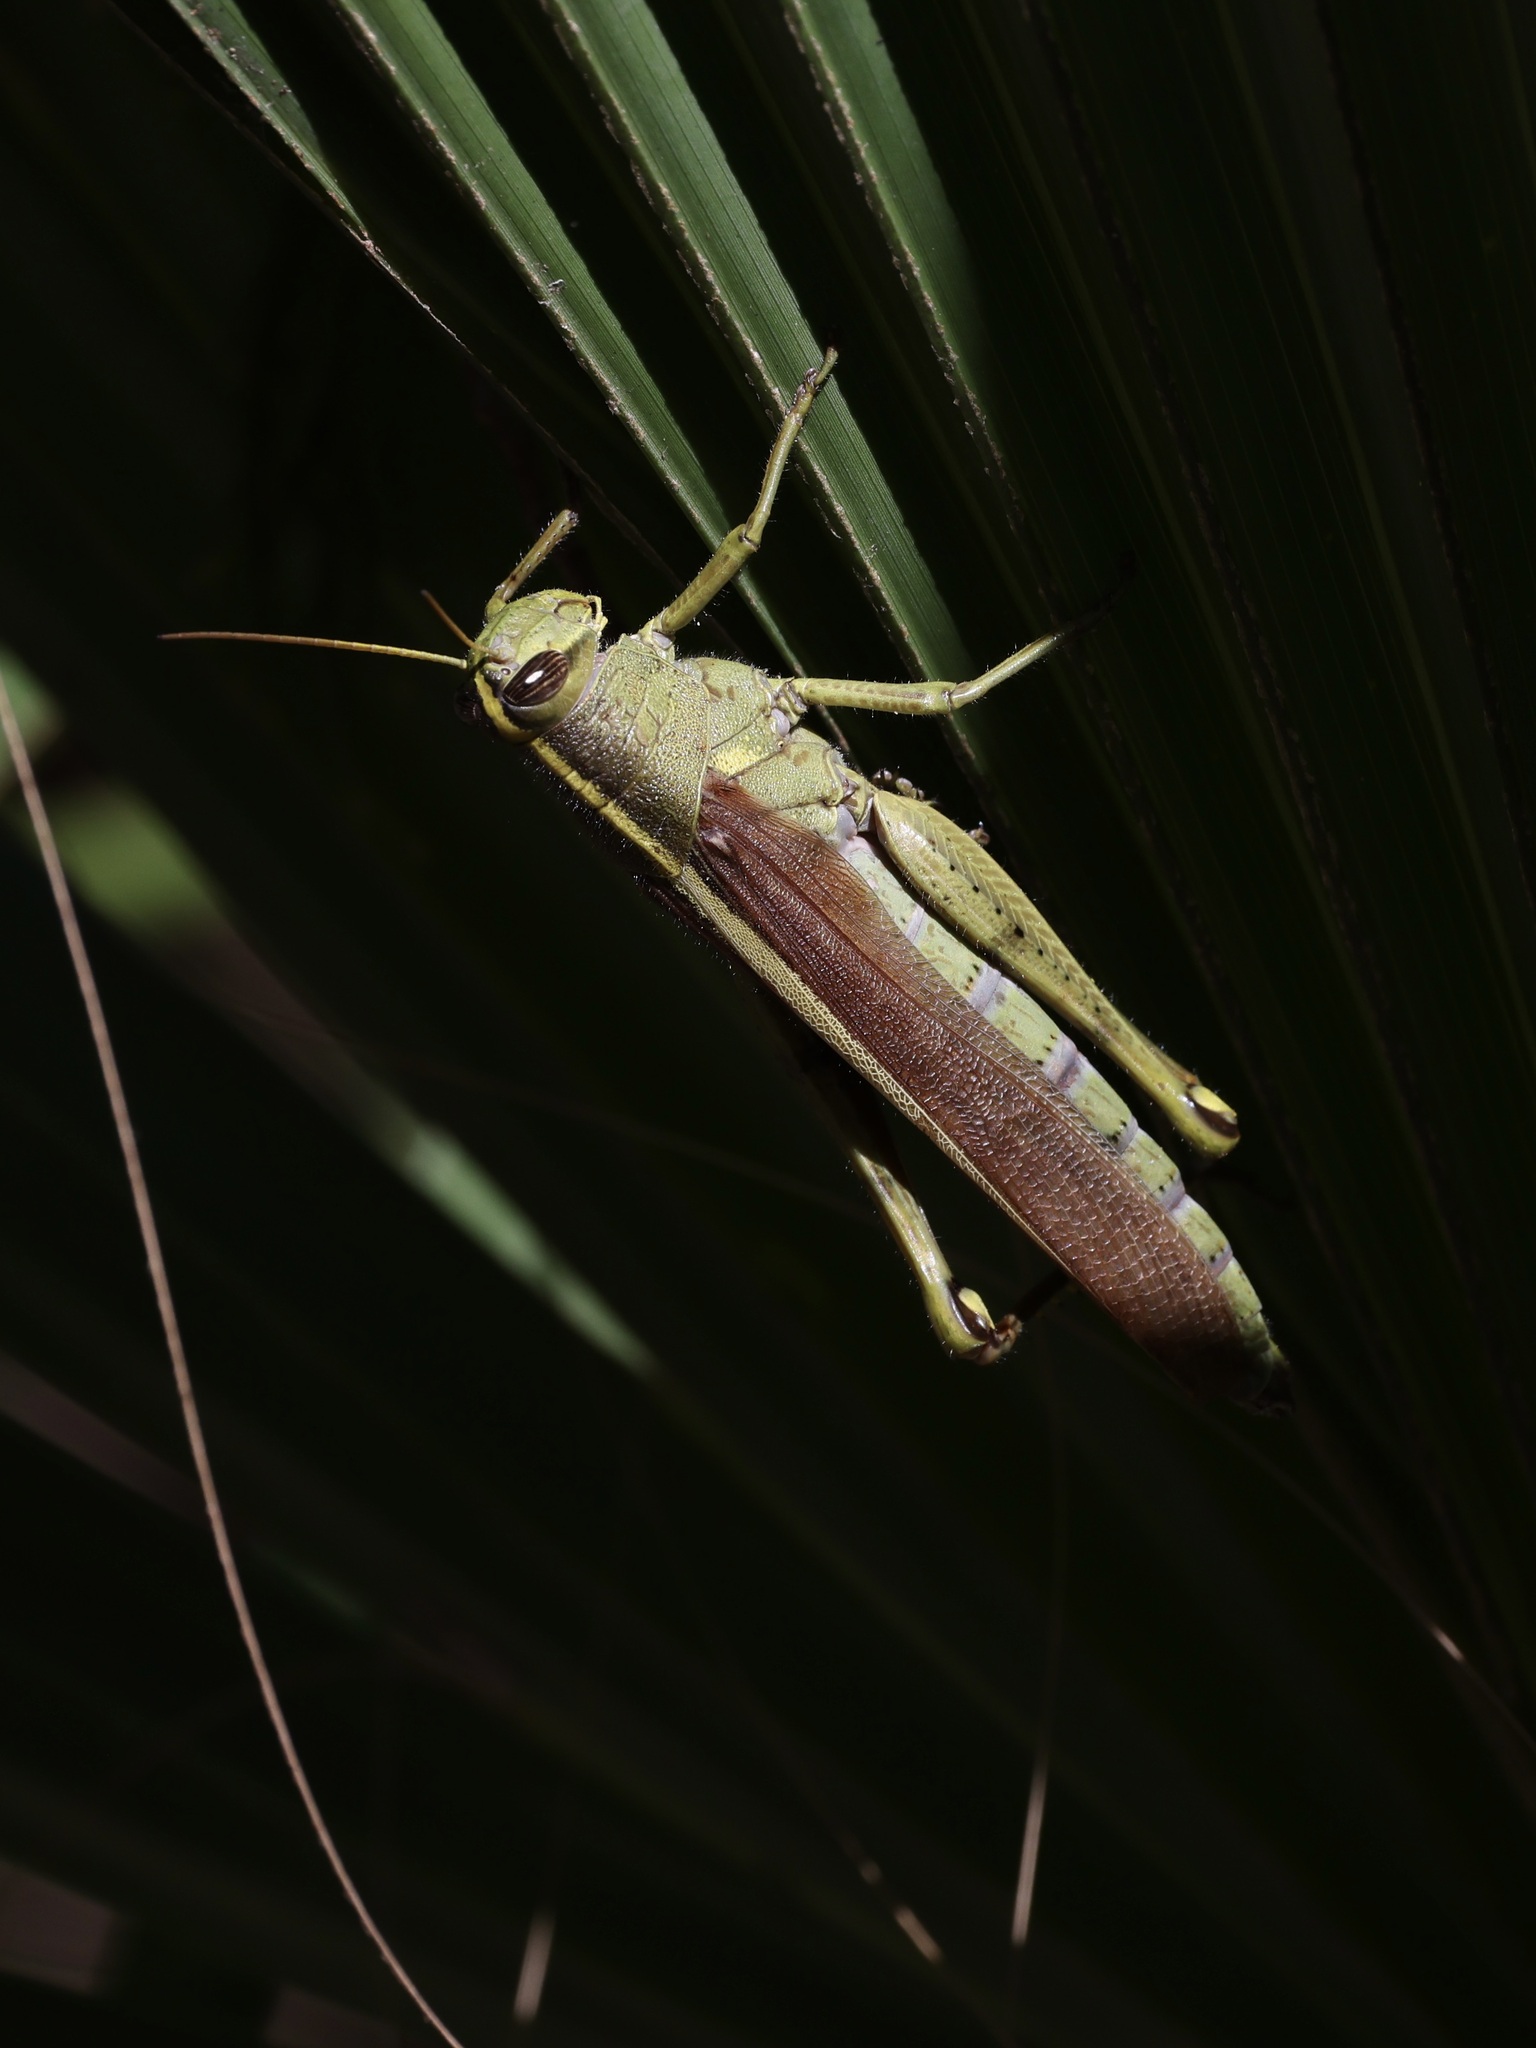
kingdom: Animalia
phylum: Arthropoda
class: Insecta
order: Orthoptera
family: Acrididae
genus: Schistocerca
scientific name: Schistocerca obscura
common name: Obscure bird grasshopper
